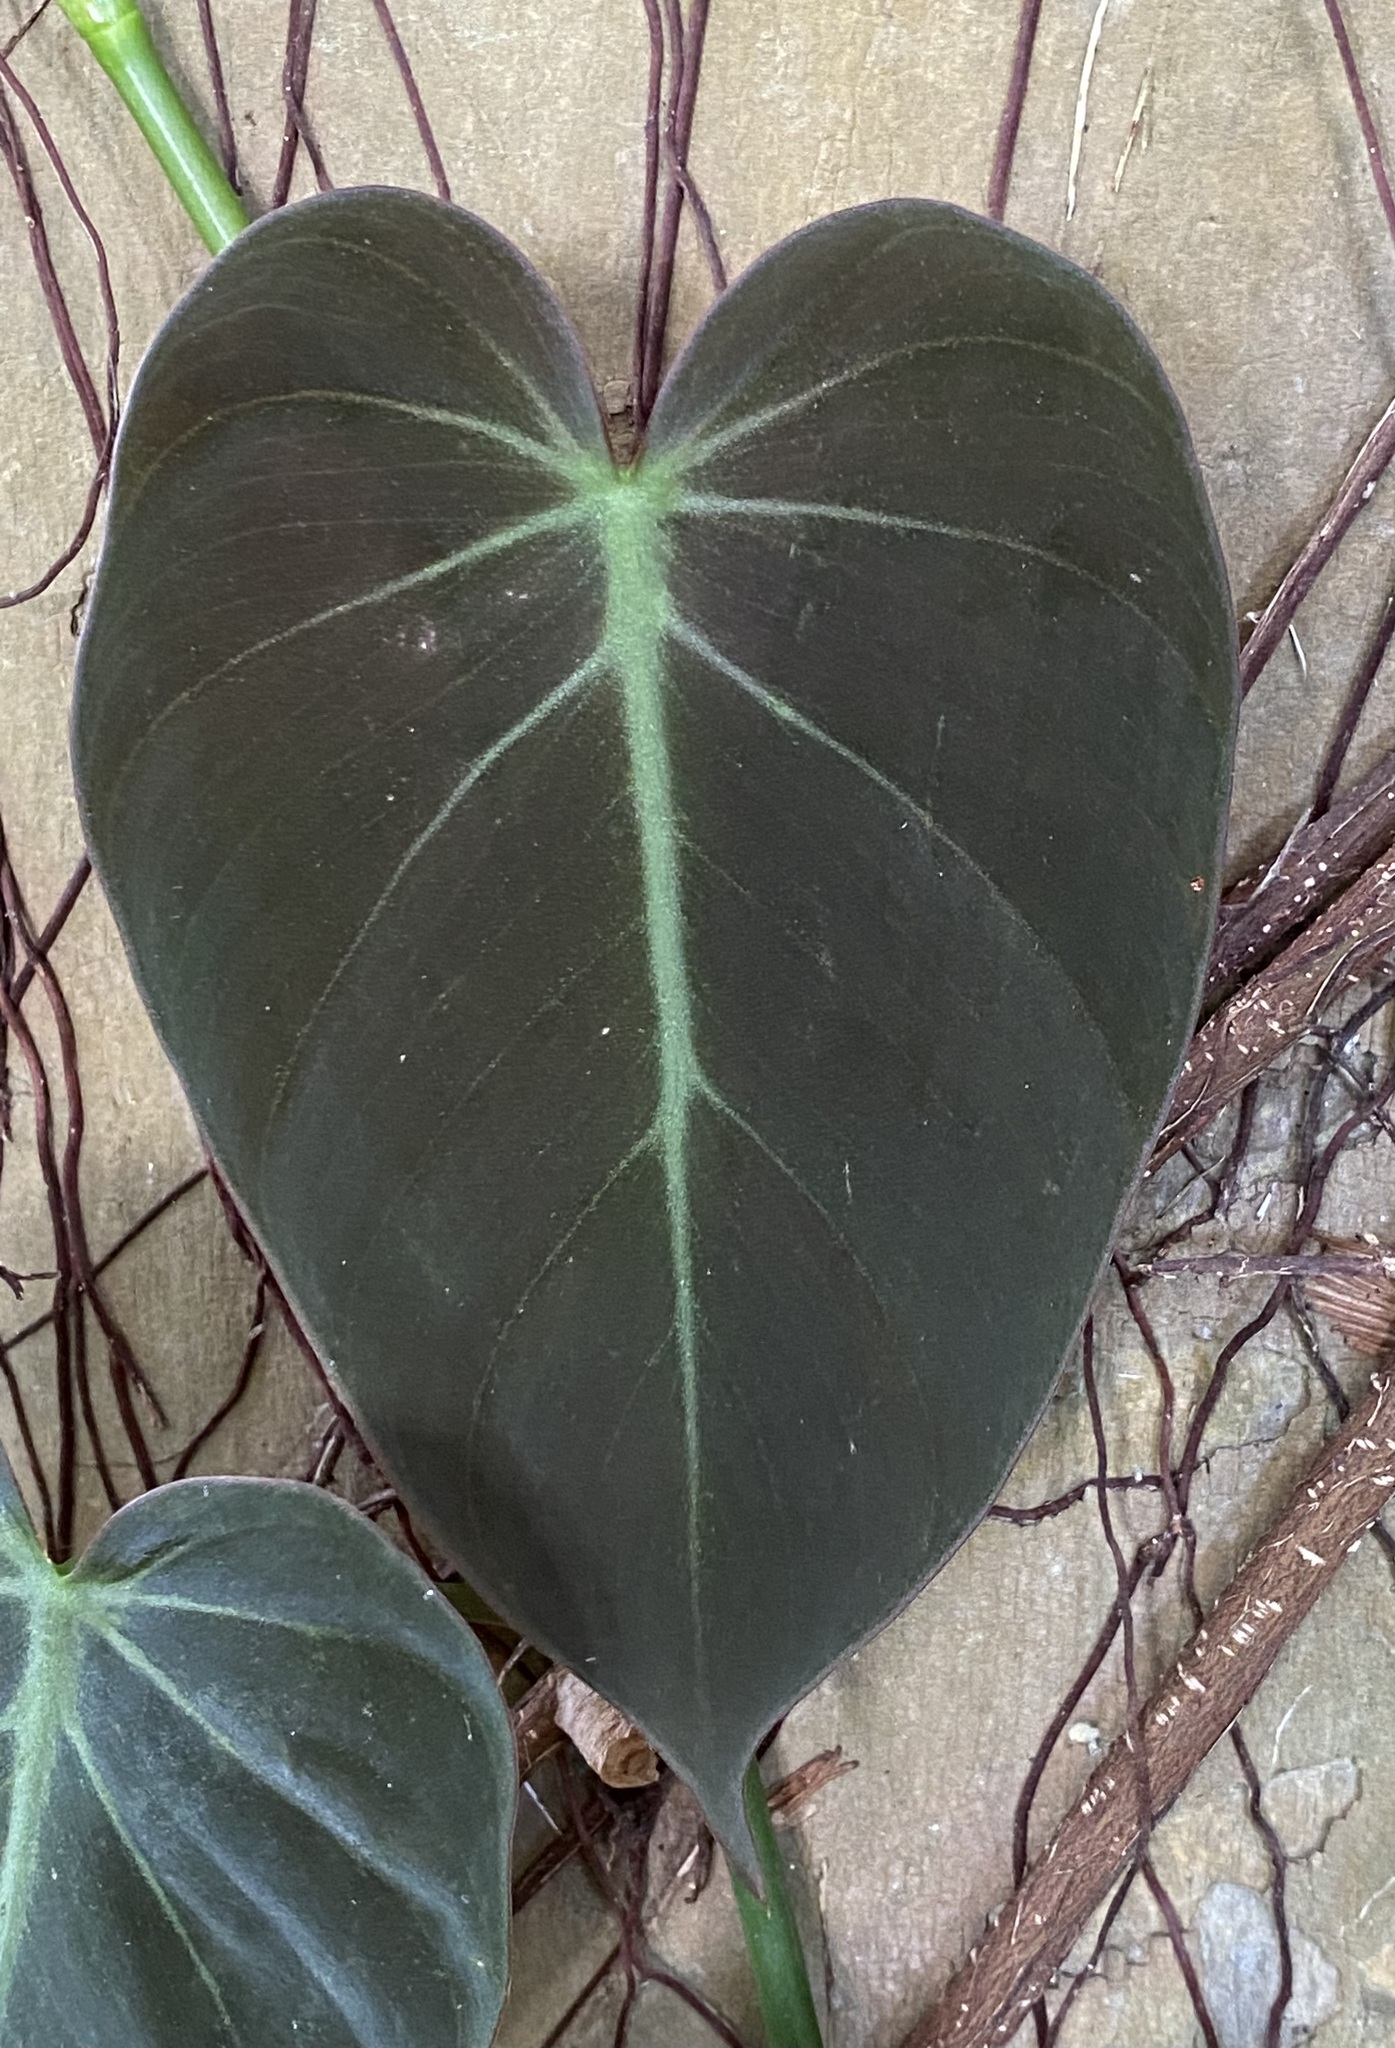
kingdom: Plantae
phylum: Tracheophyta
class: Liliopsida
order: Alismatales
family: Araceae
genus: Philodendron
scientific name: Philodendron hederaceum
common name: Vilevine
